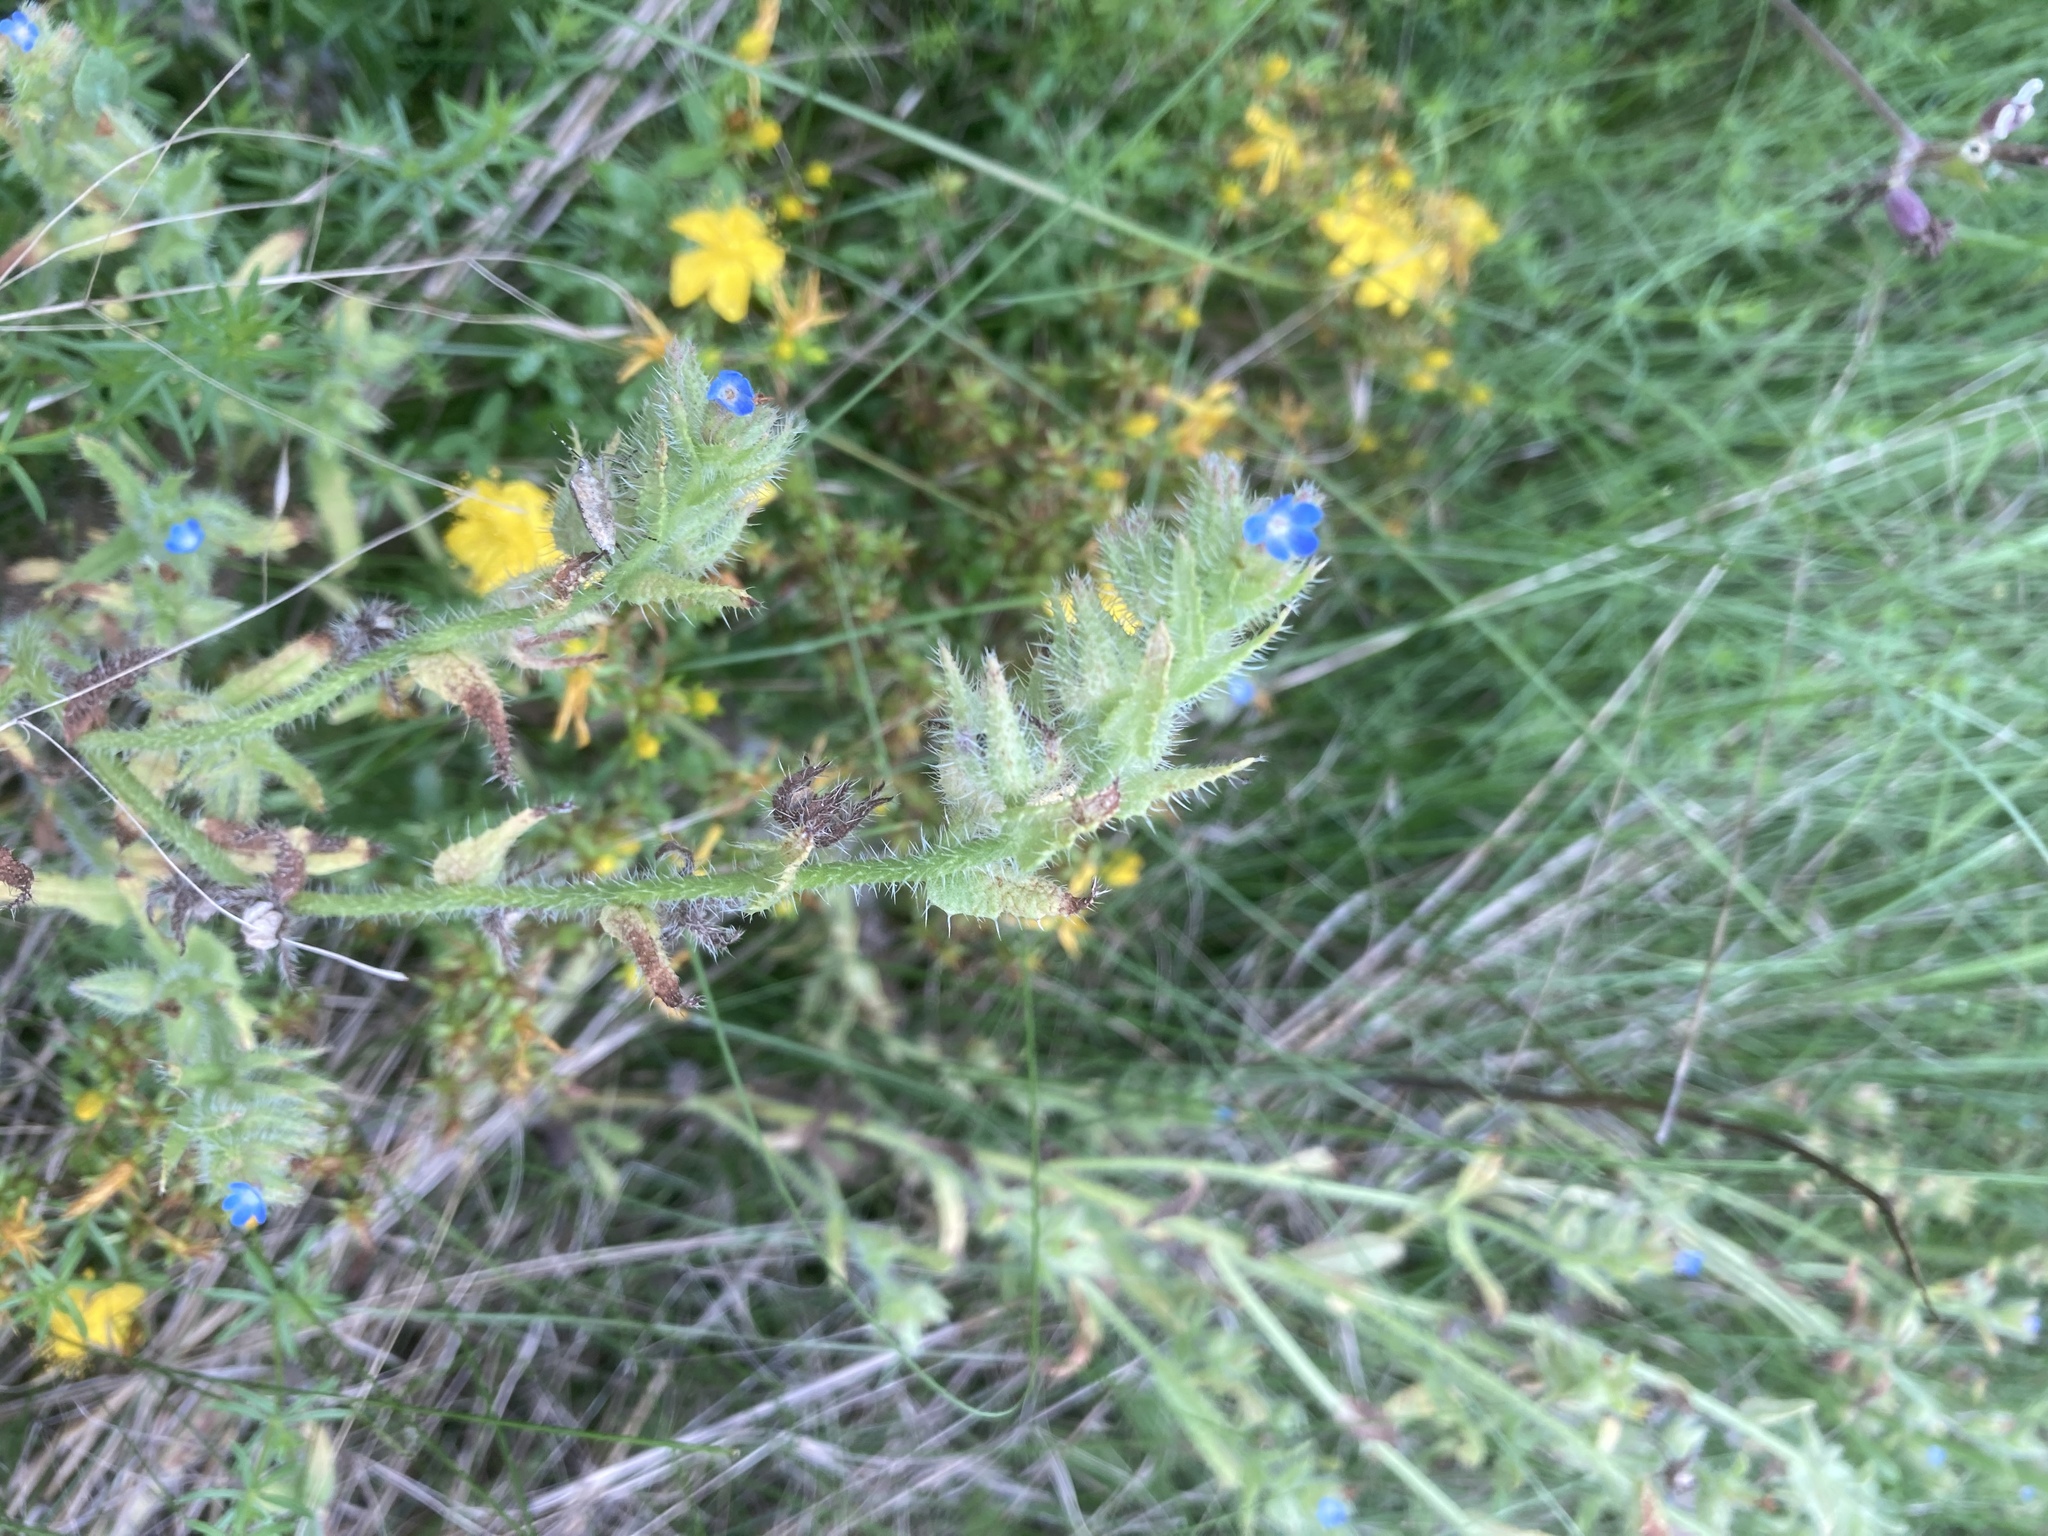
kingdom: Plantae
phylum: Tracheophyta
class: Magnoliopsida
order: Boraginales
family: Boraginaceae
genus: Lycopsis
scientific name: Lycopsis arvensis
